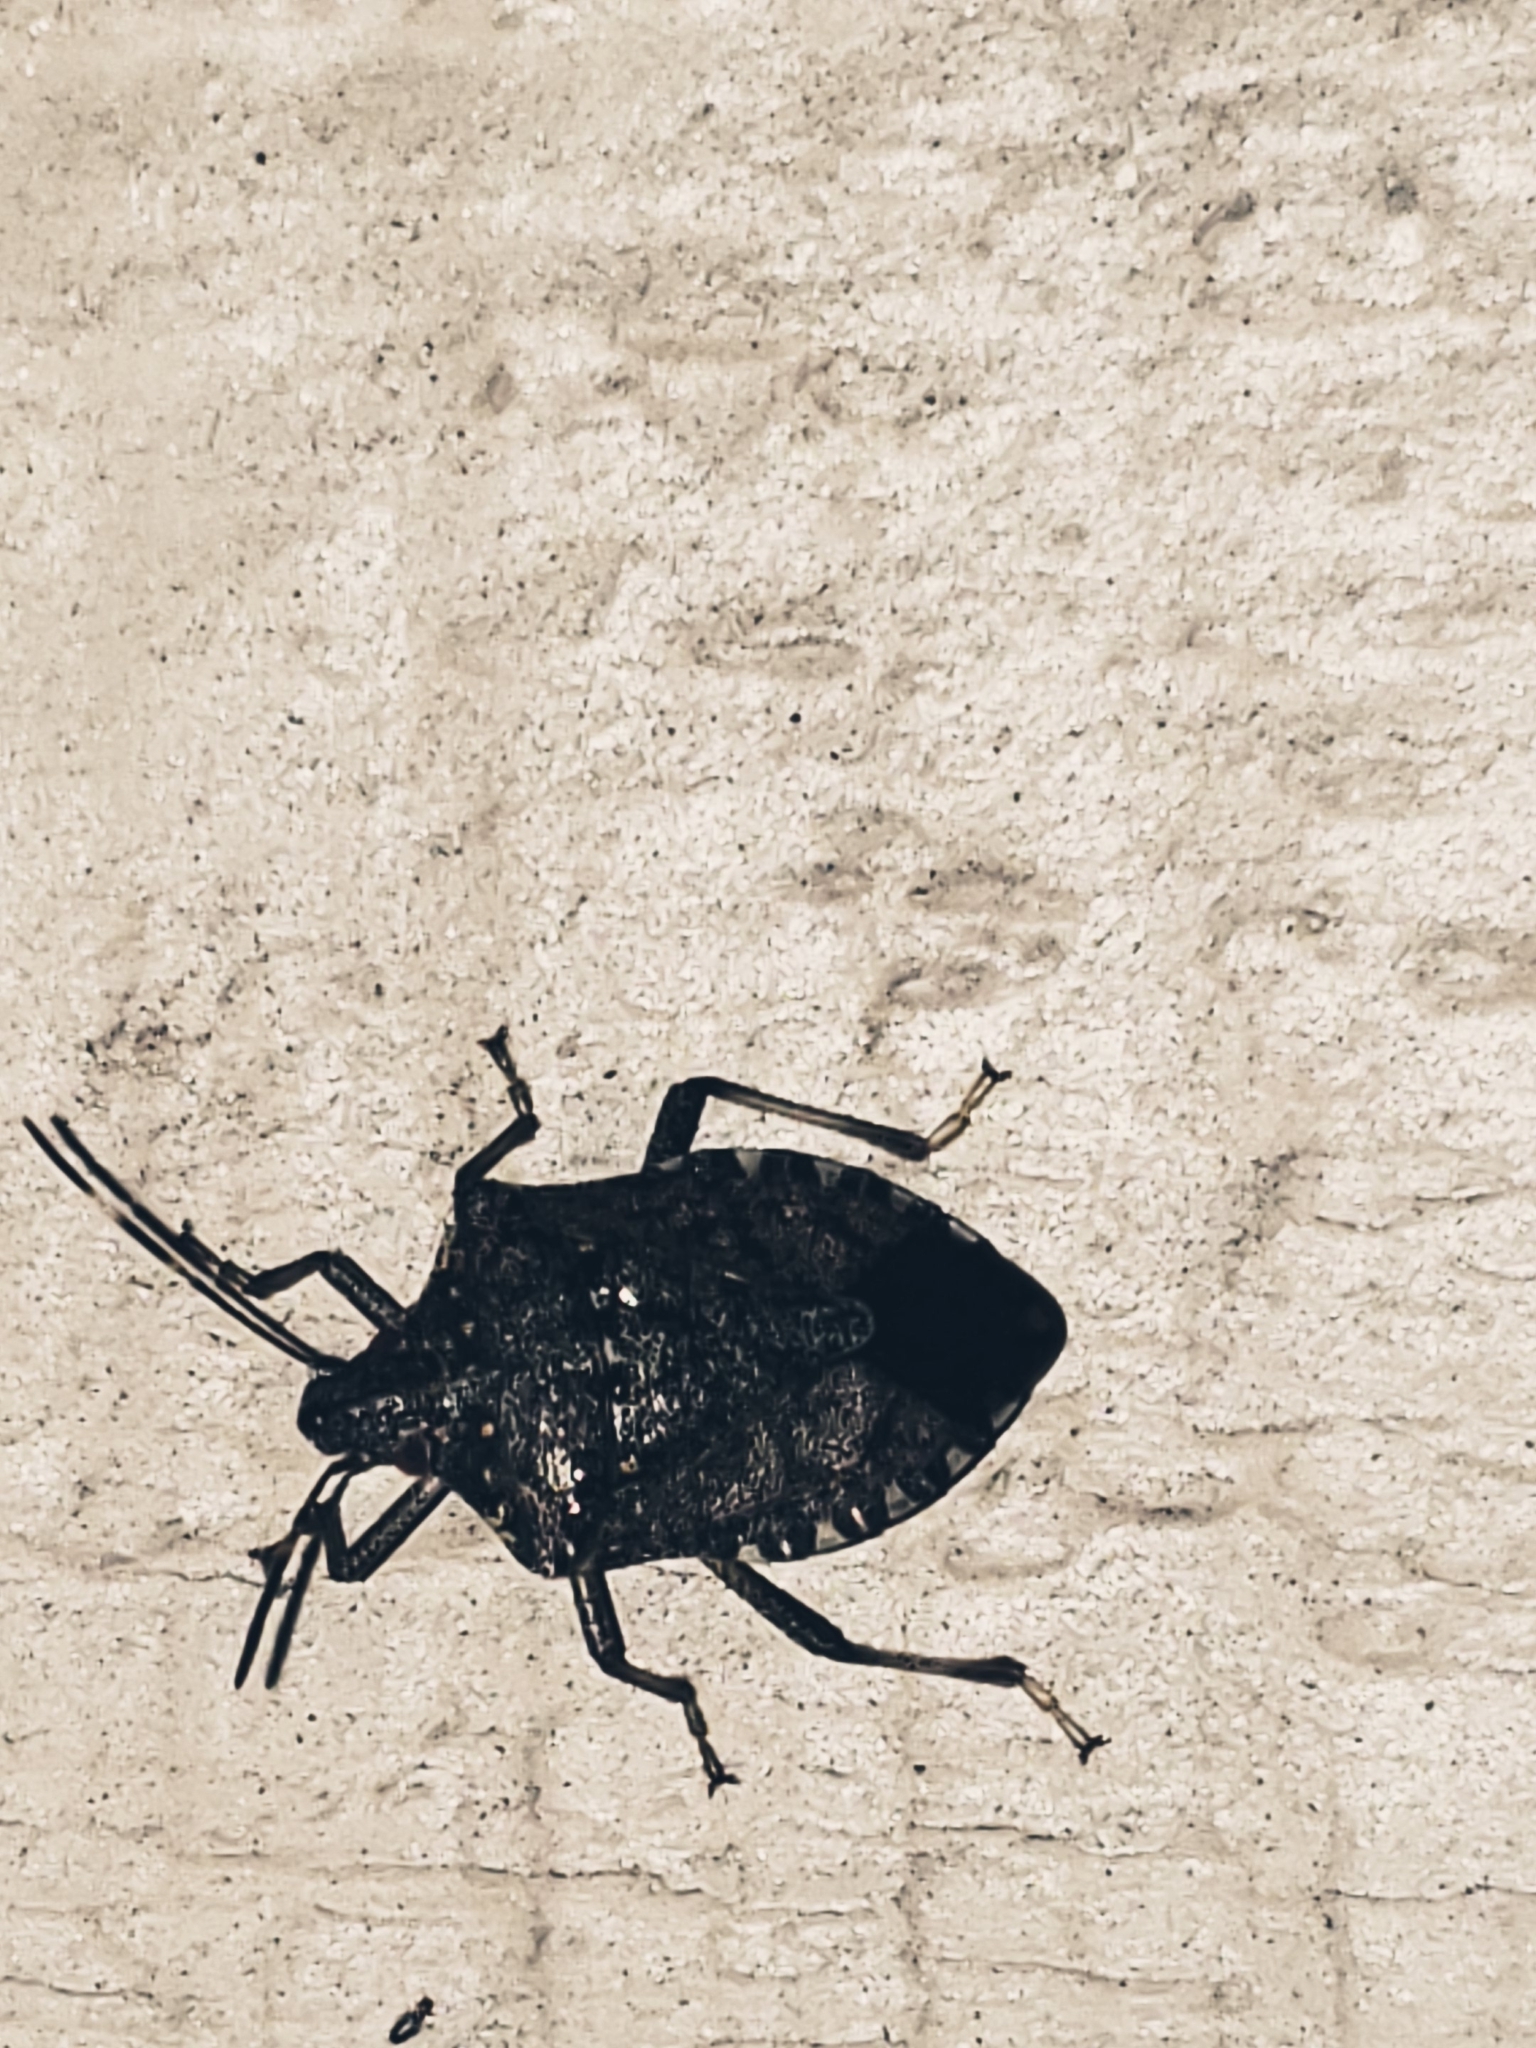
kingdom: Animalia
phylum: Arthropoda
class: Insecta
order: Hemiptera
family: Pentatomidae
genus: Halyomorpha
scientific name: Halyomorpha halys
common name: Brown marmorated stink bug
